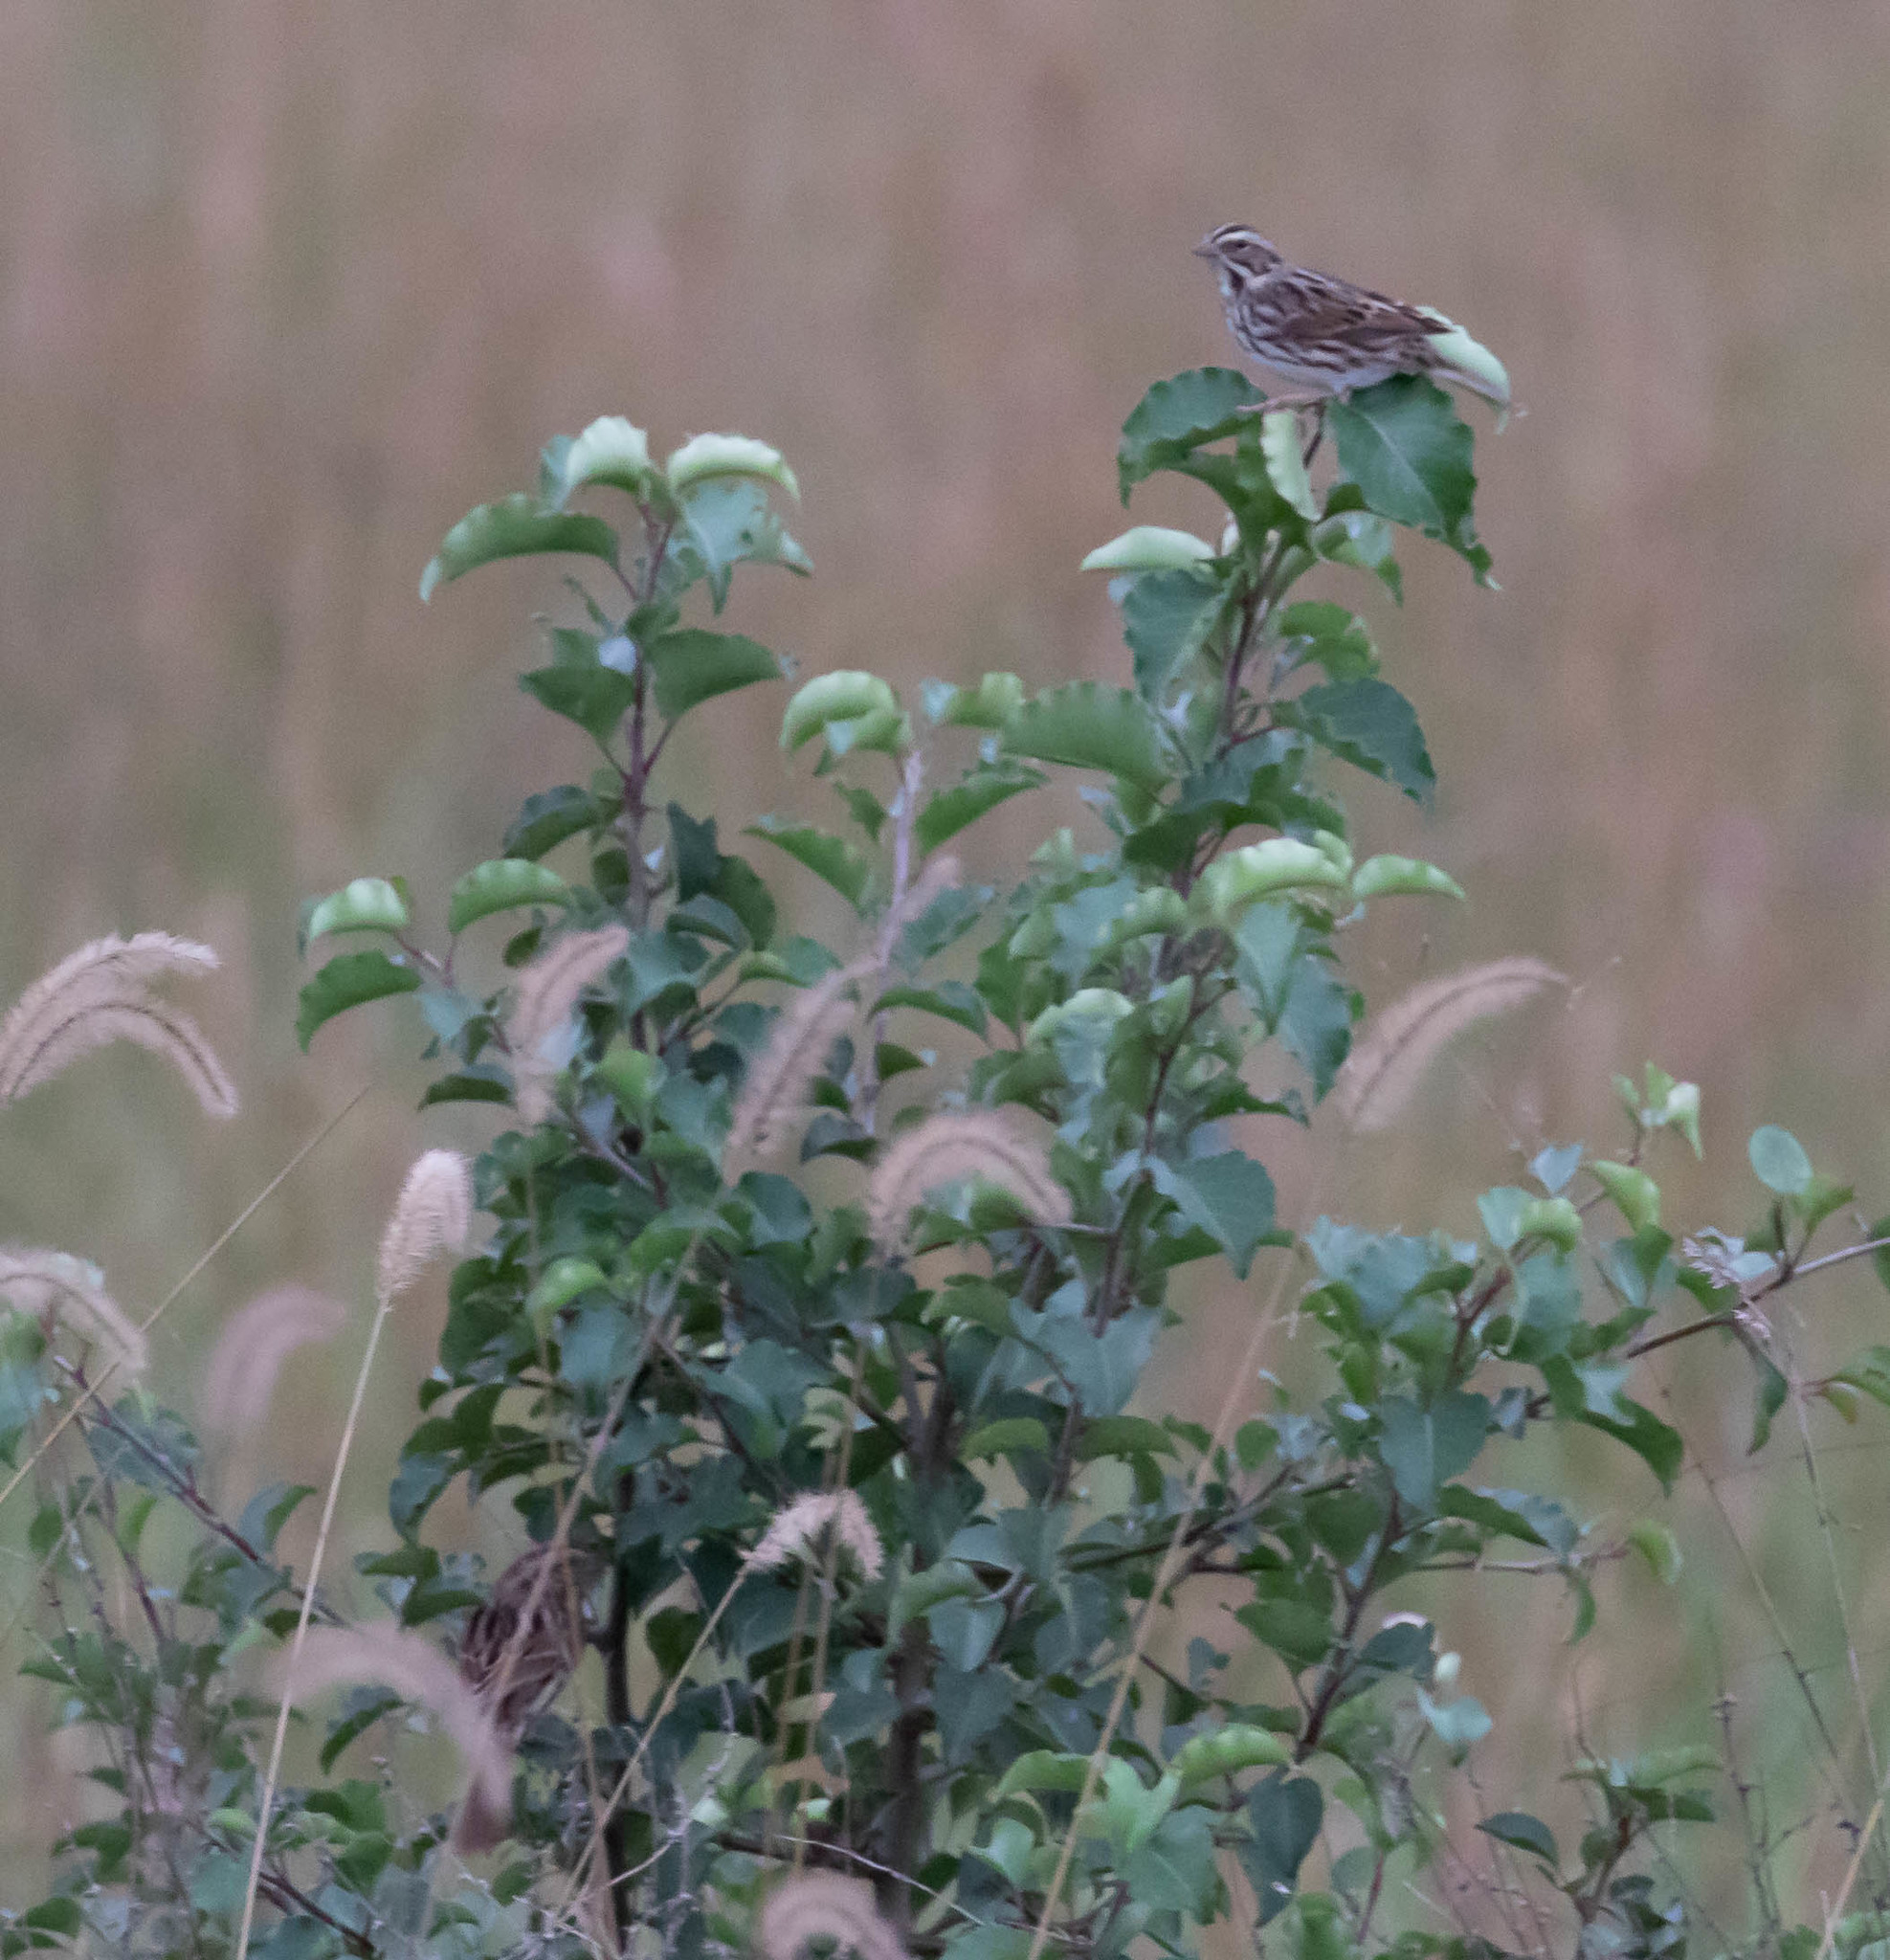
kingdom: Animalia
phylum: Chordata
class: Aves
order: Passeriformes
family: Passerellidae
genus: Melospiza
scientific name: Melospiza melodia
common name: Song sparrow
